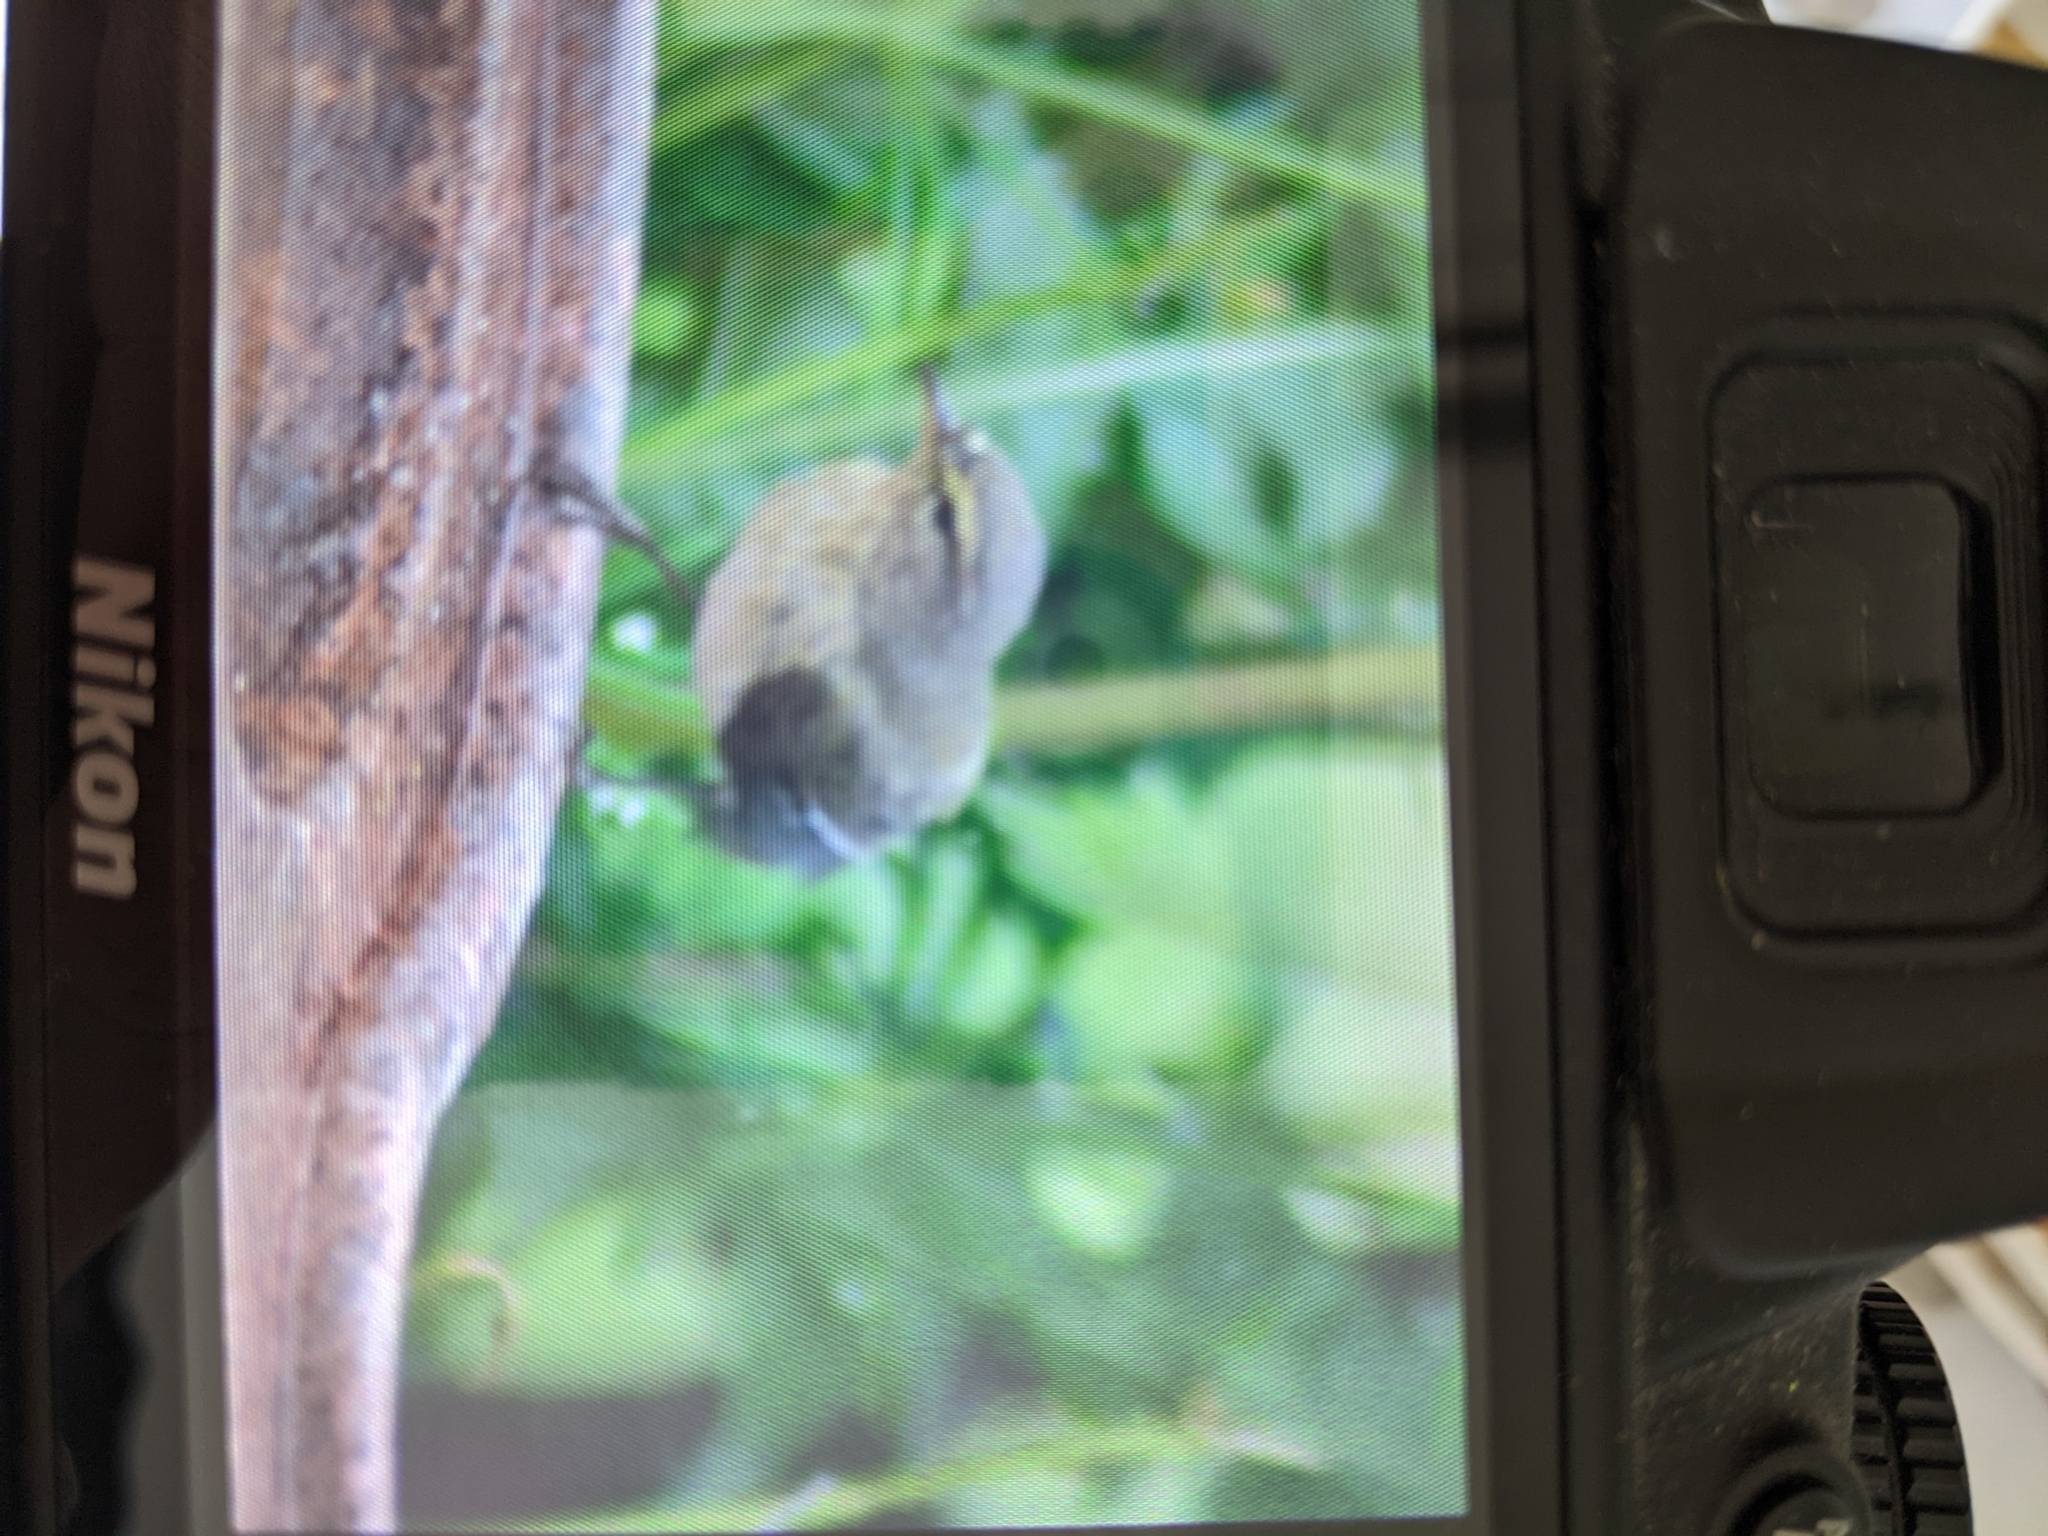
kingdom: Animalia
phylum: Chordata
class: Aves
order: Passeriformes
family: Phylloscopidae
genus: Phylloscopus
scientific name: Phylloscopus collybita
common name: Common chiffchaff
